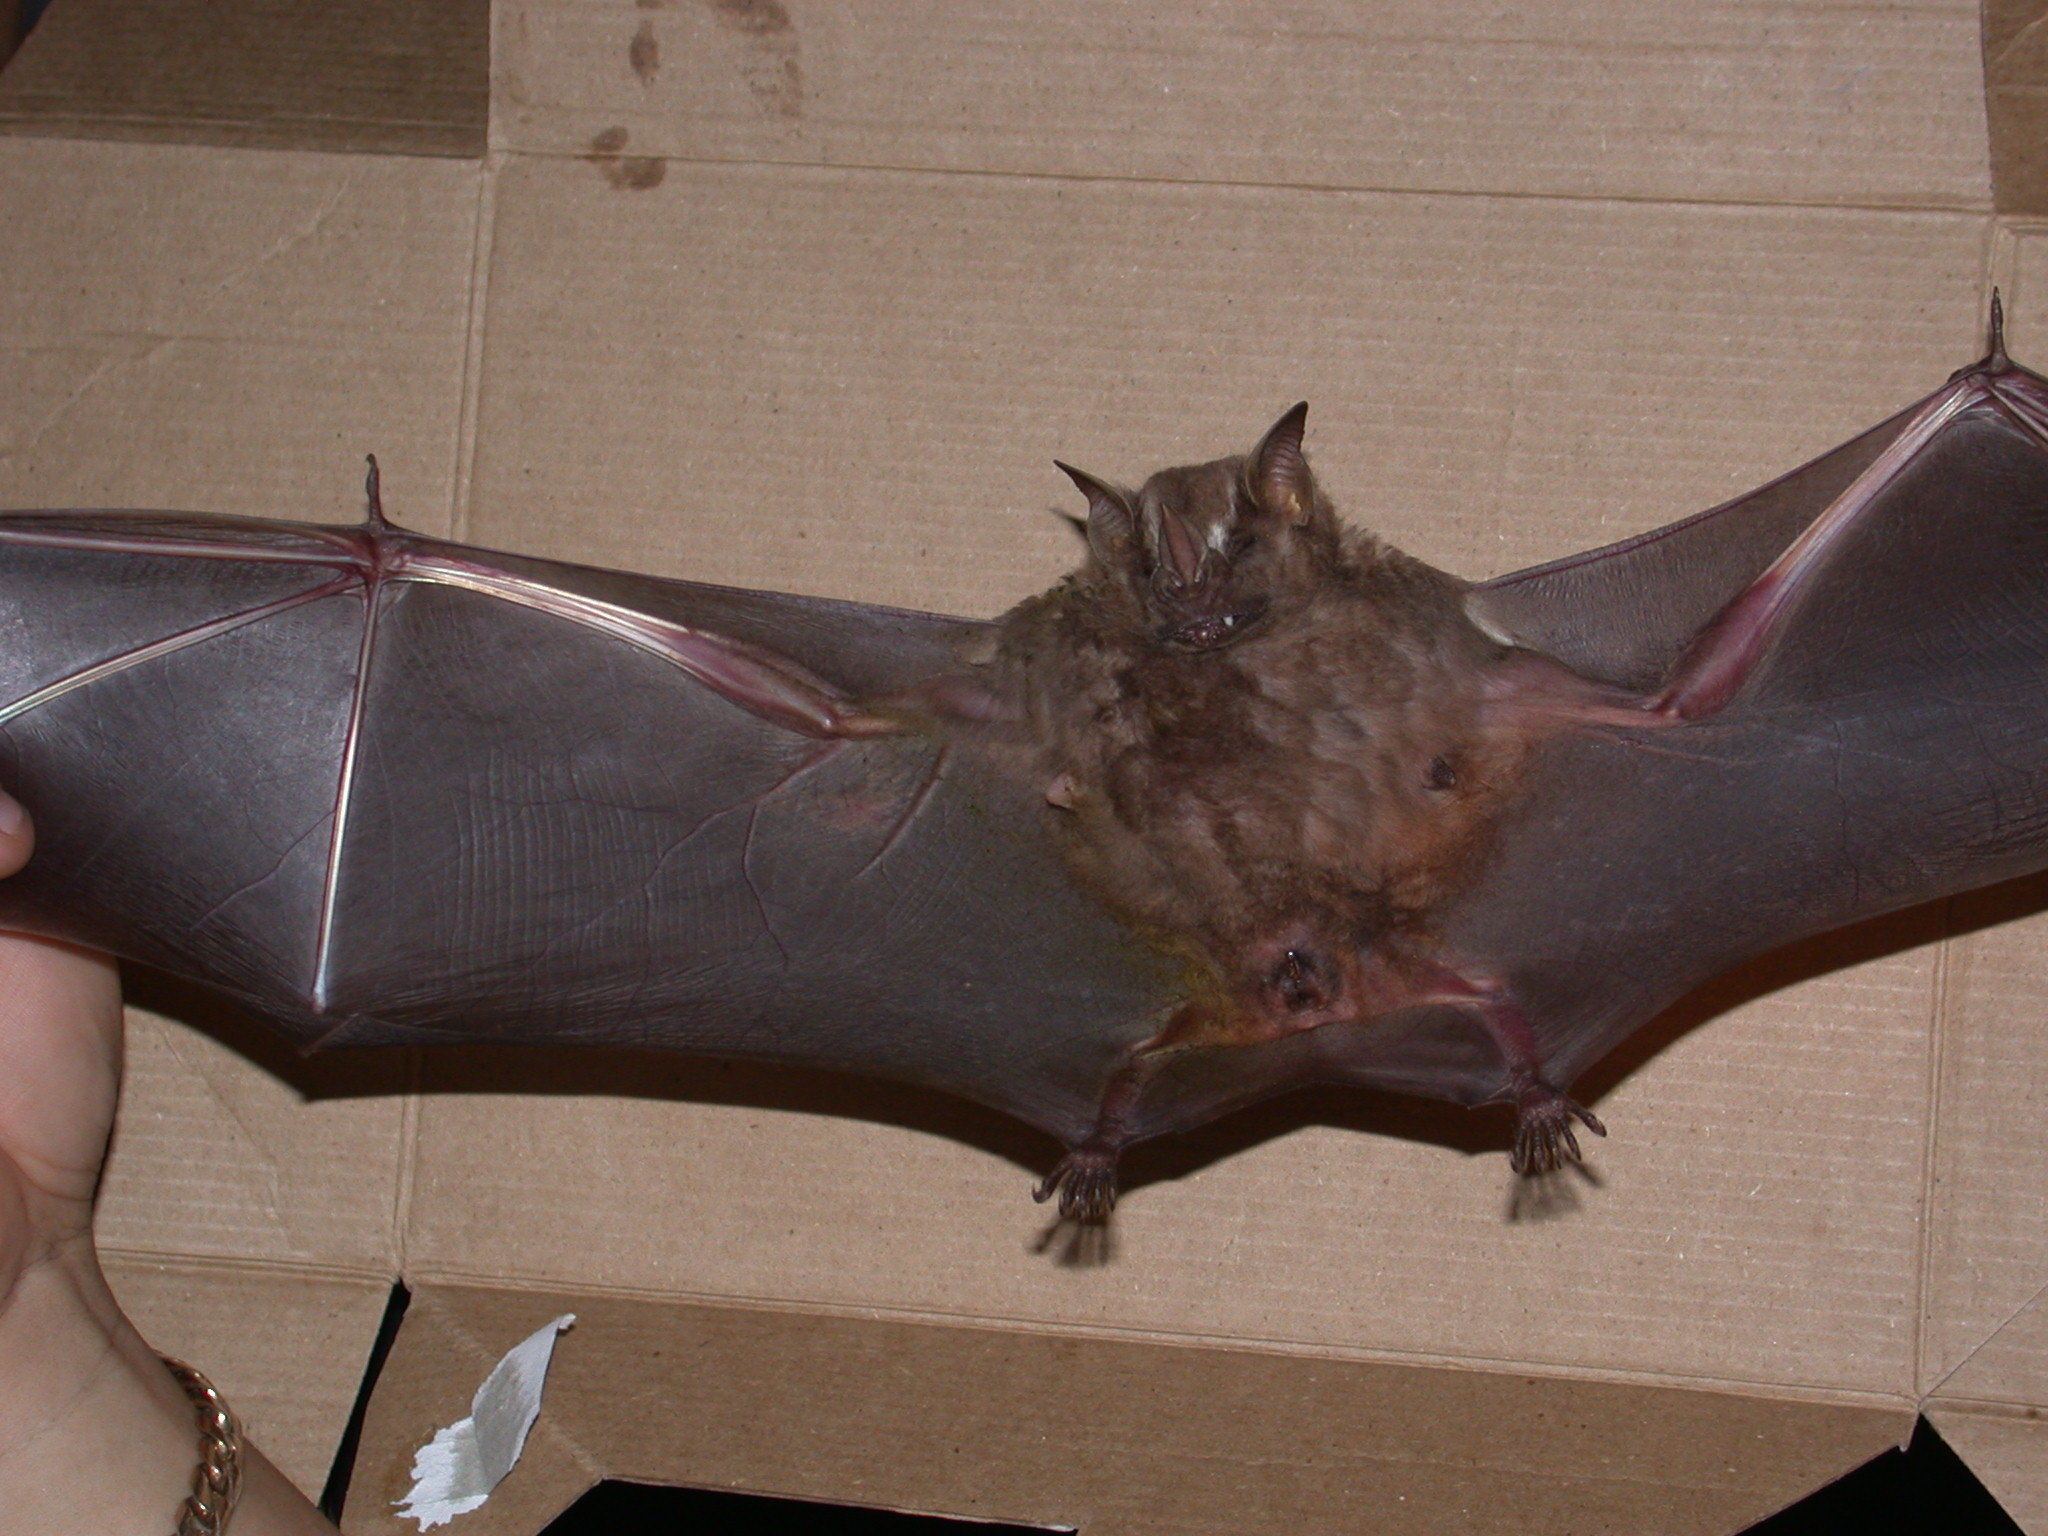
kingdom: Animalia
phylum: Chordata
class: Mammalia
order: Chiroptera
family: Phyllostomidae
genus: Artibeus
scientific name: Artibeus jamaicensis
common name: Jamaican fruit-eating bat
